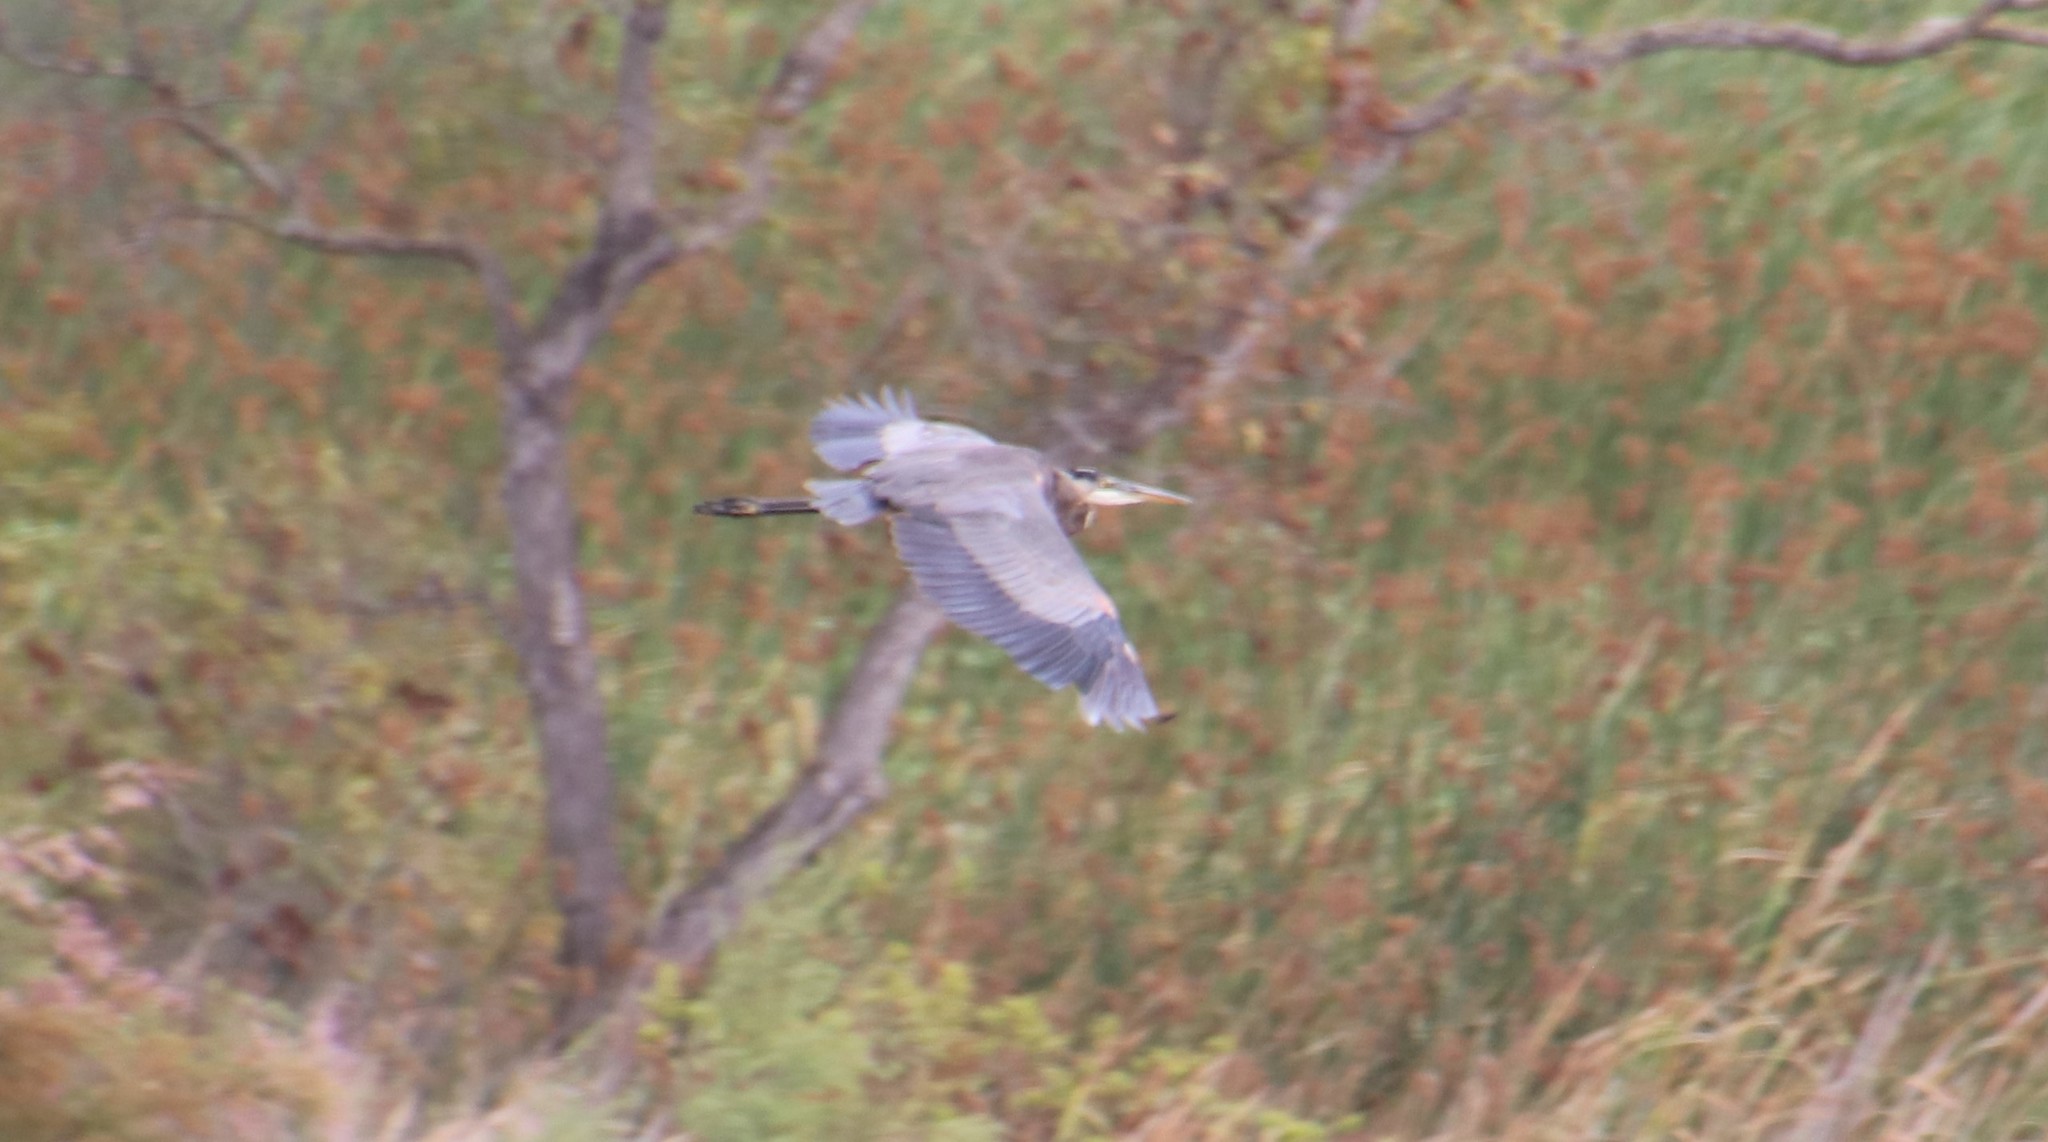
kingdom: Animalia
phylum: Chordata
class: Aves
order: Pelecaniformes
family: Ardeidae
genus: Ardea
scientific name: Ardea herodias
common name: Great blue heron
